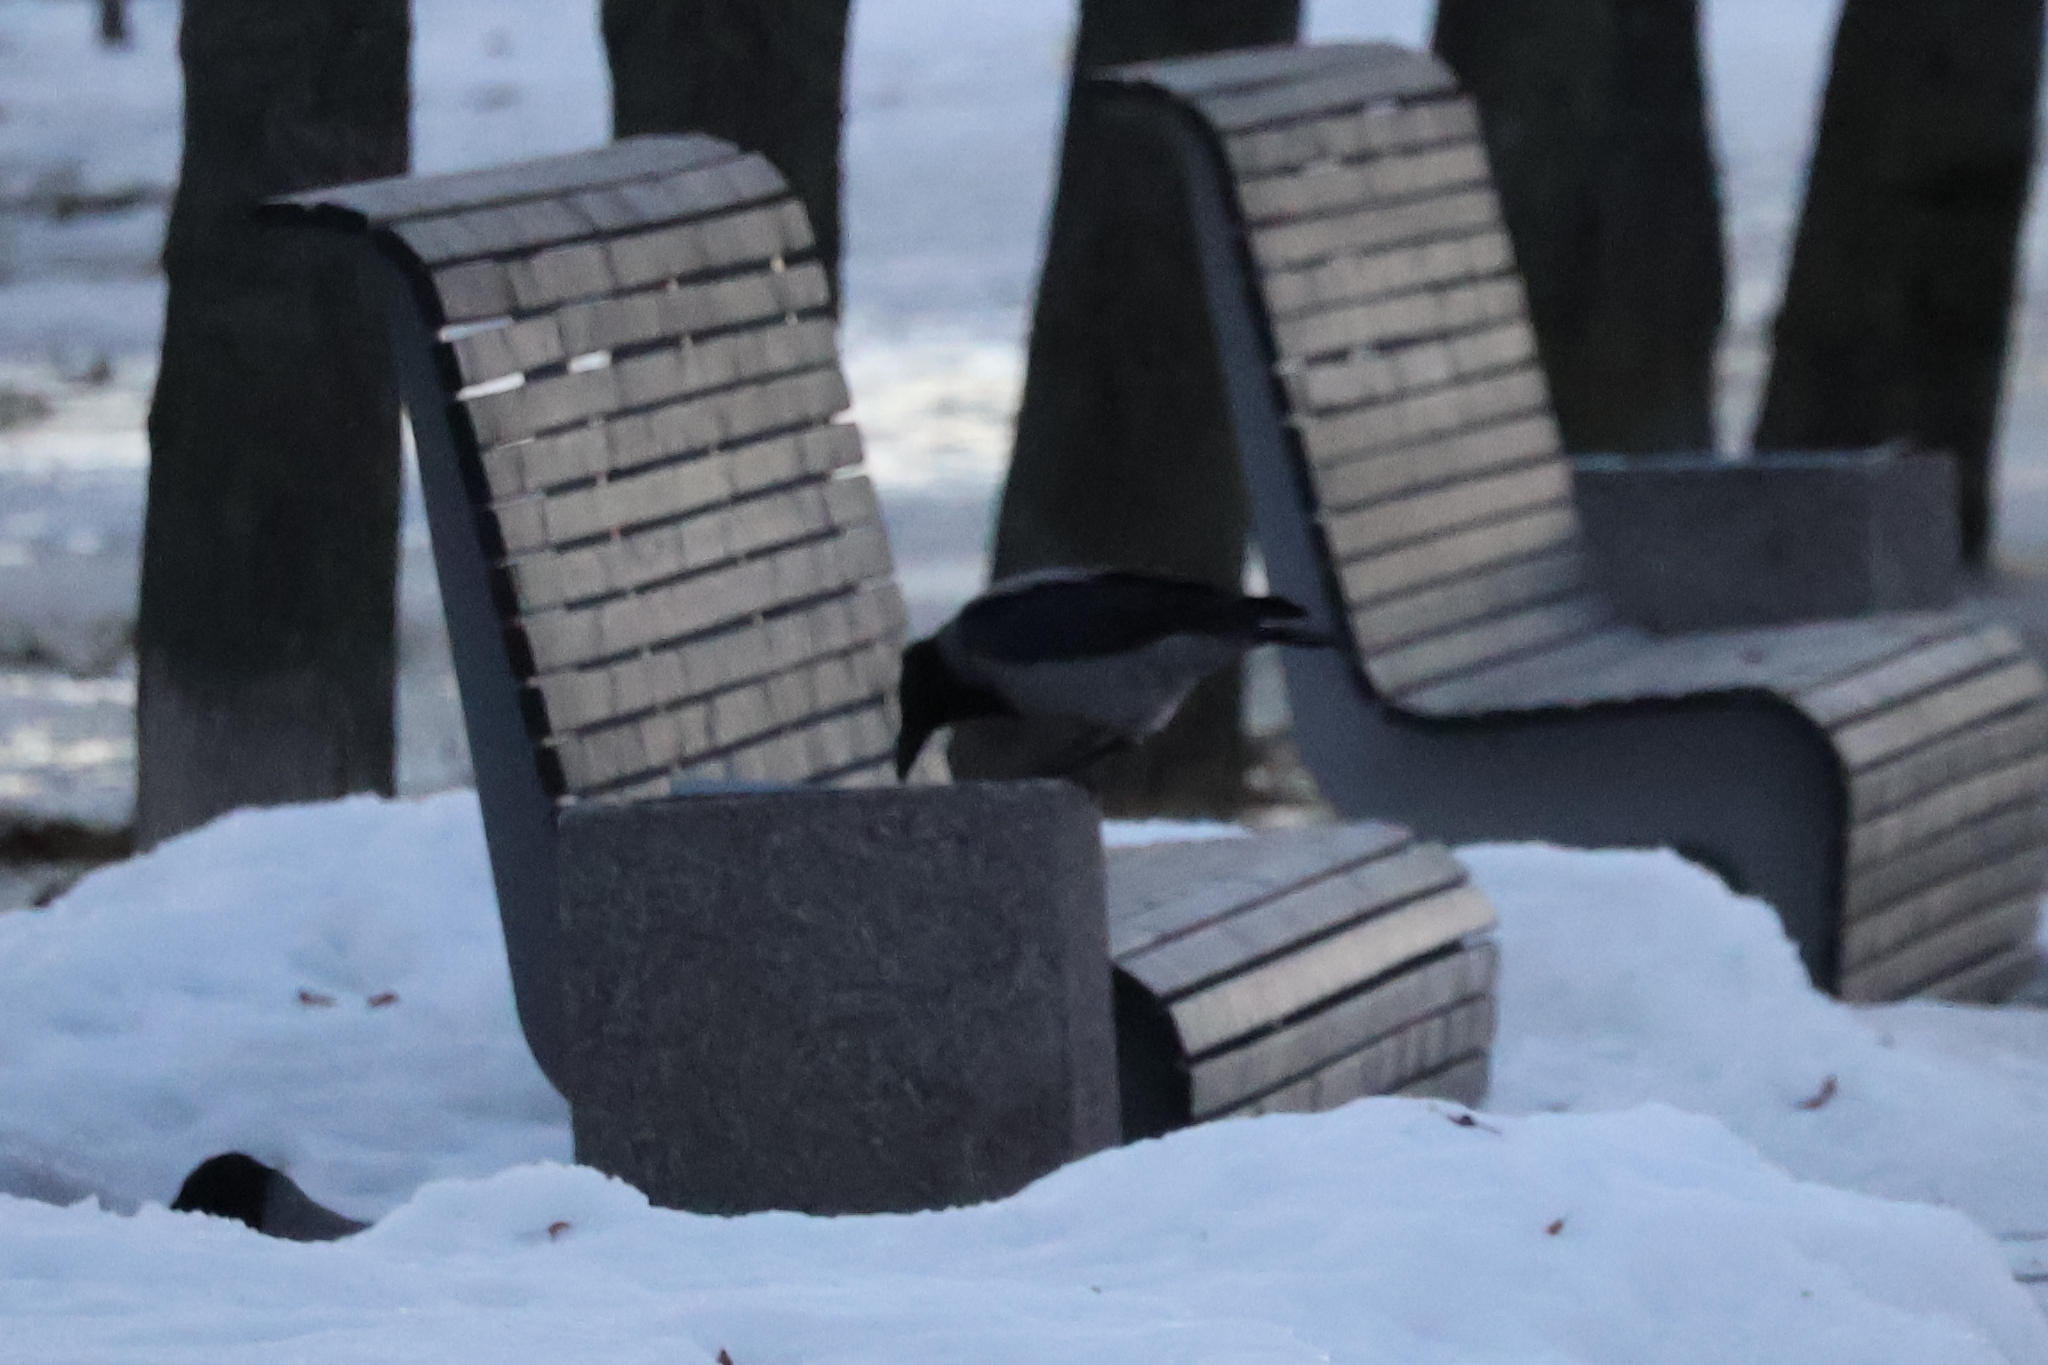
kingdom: Animalia
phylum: Chordata
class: Aves
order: Passeriformes
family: Corvidae
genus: Corvus
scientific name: Corvus cornix
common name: Hooded crow
